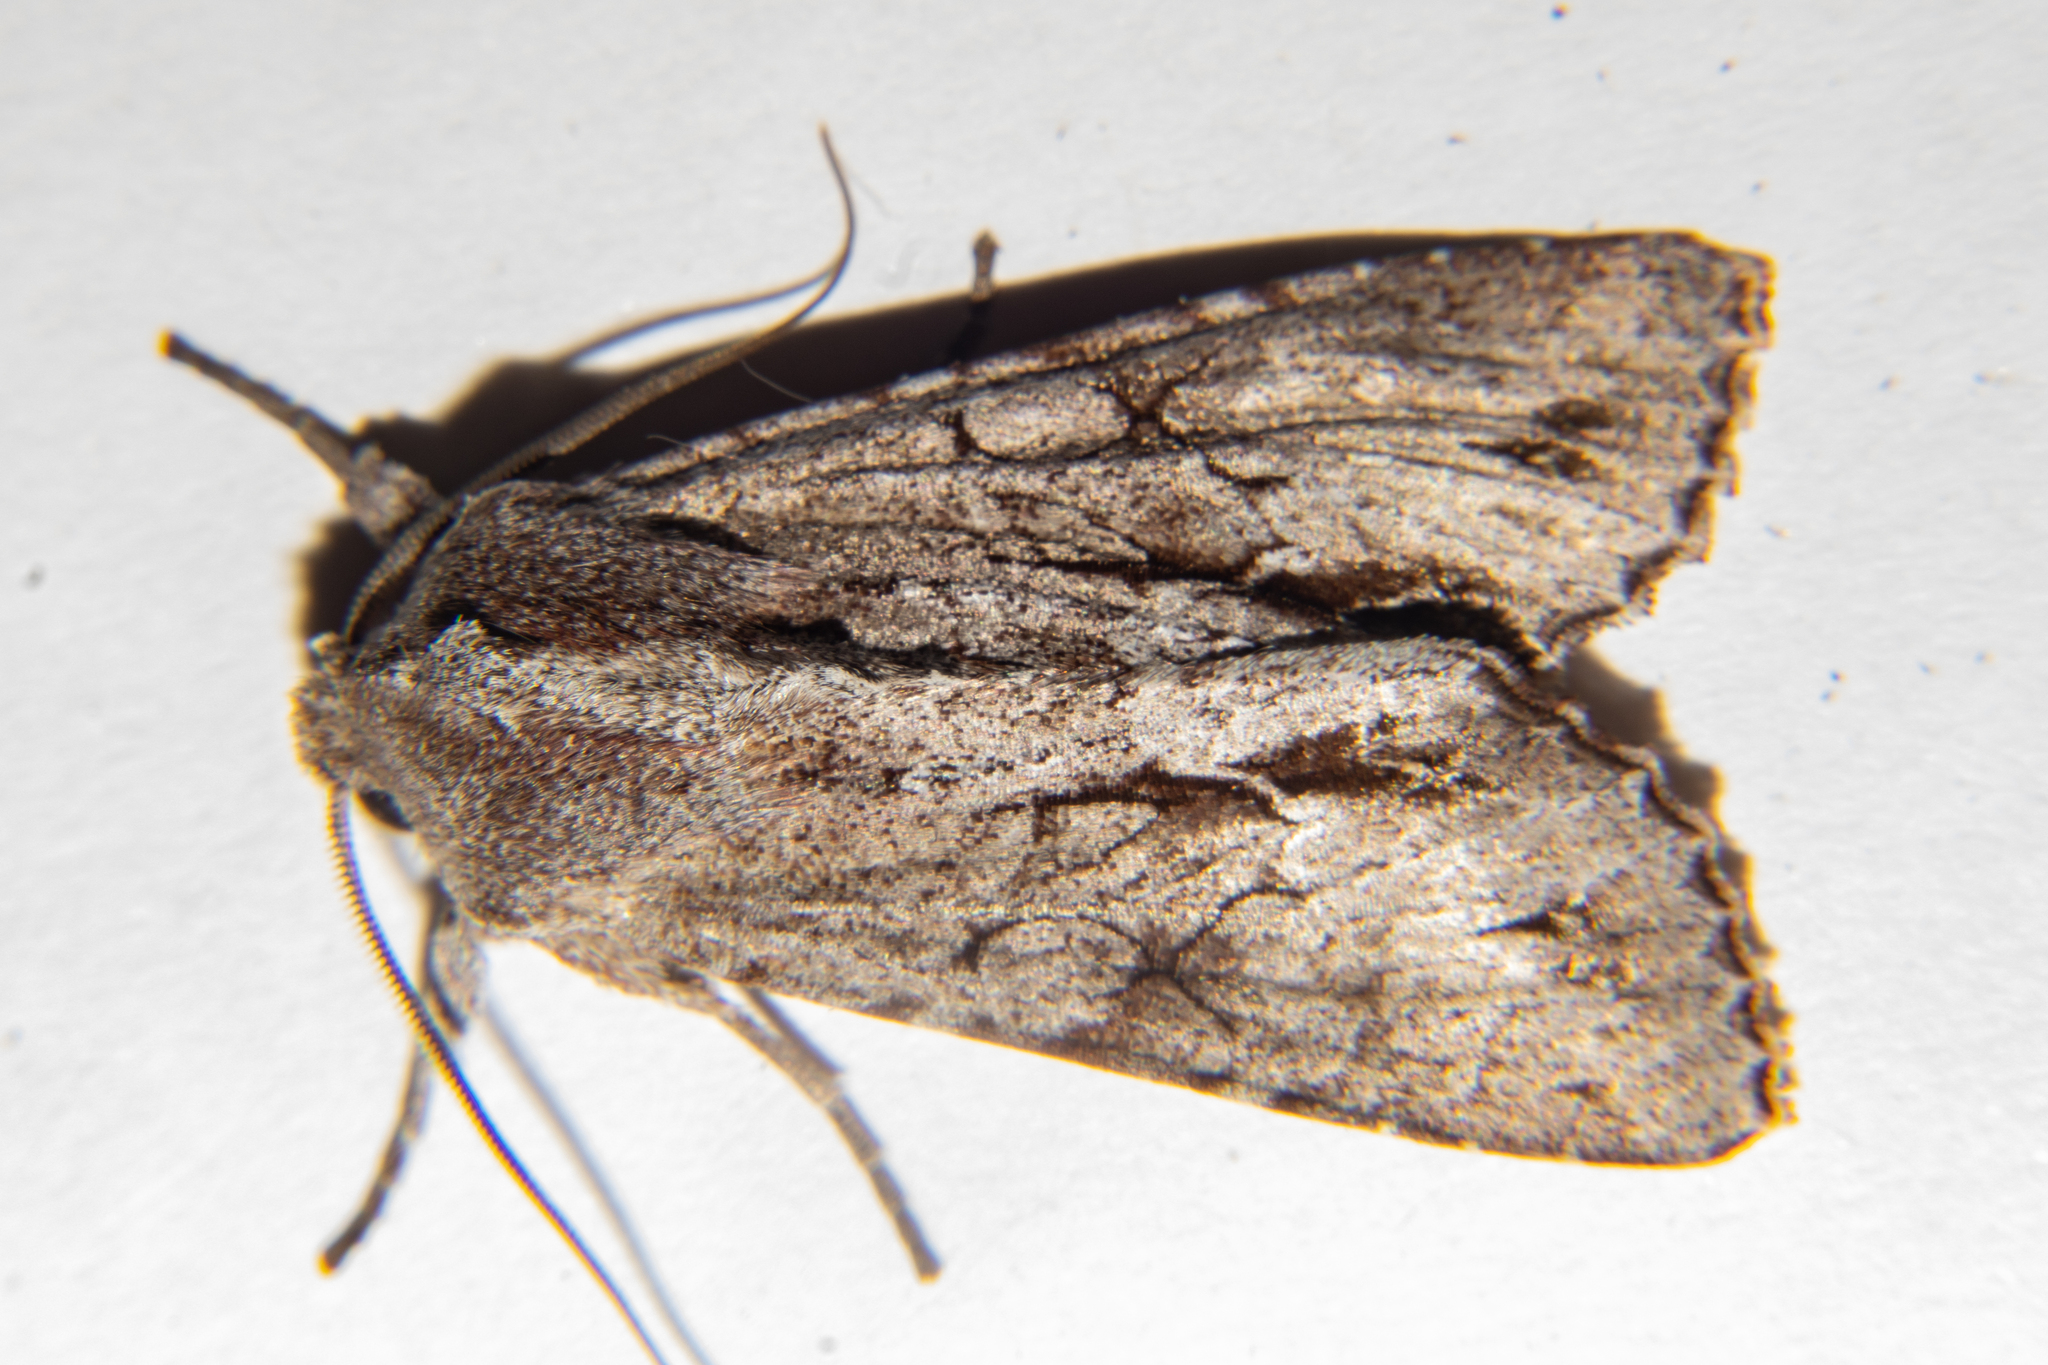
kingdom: Animalia
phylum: Arthropoda
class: Insecta
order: Lepidoptera
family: Noctuidae
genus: Ichneutica
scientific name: Ichneutica
